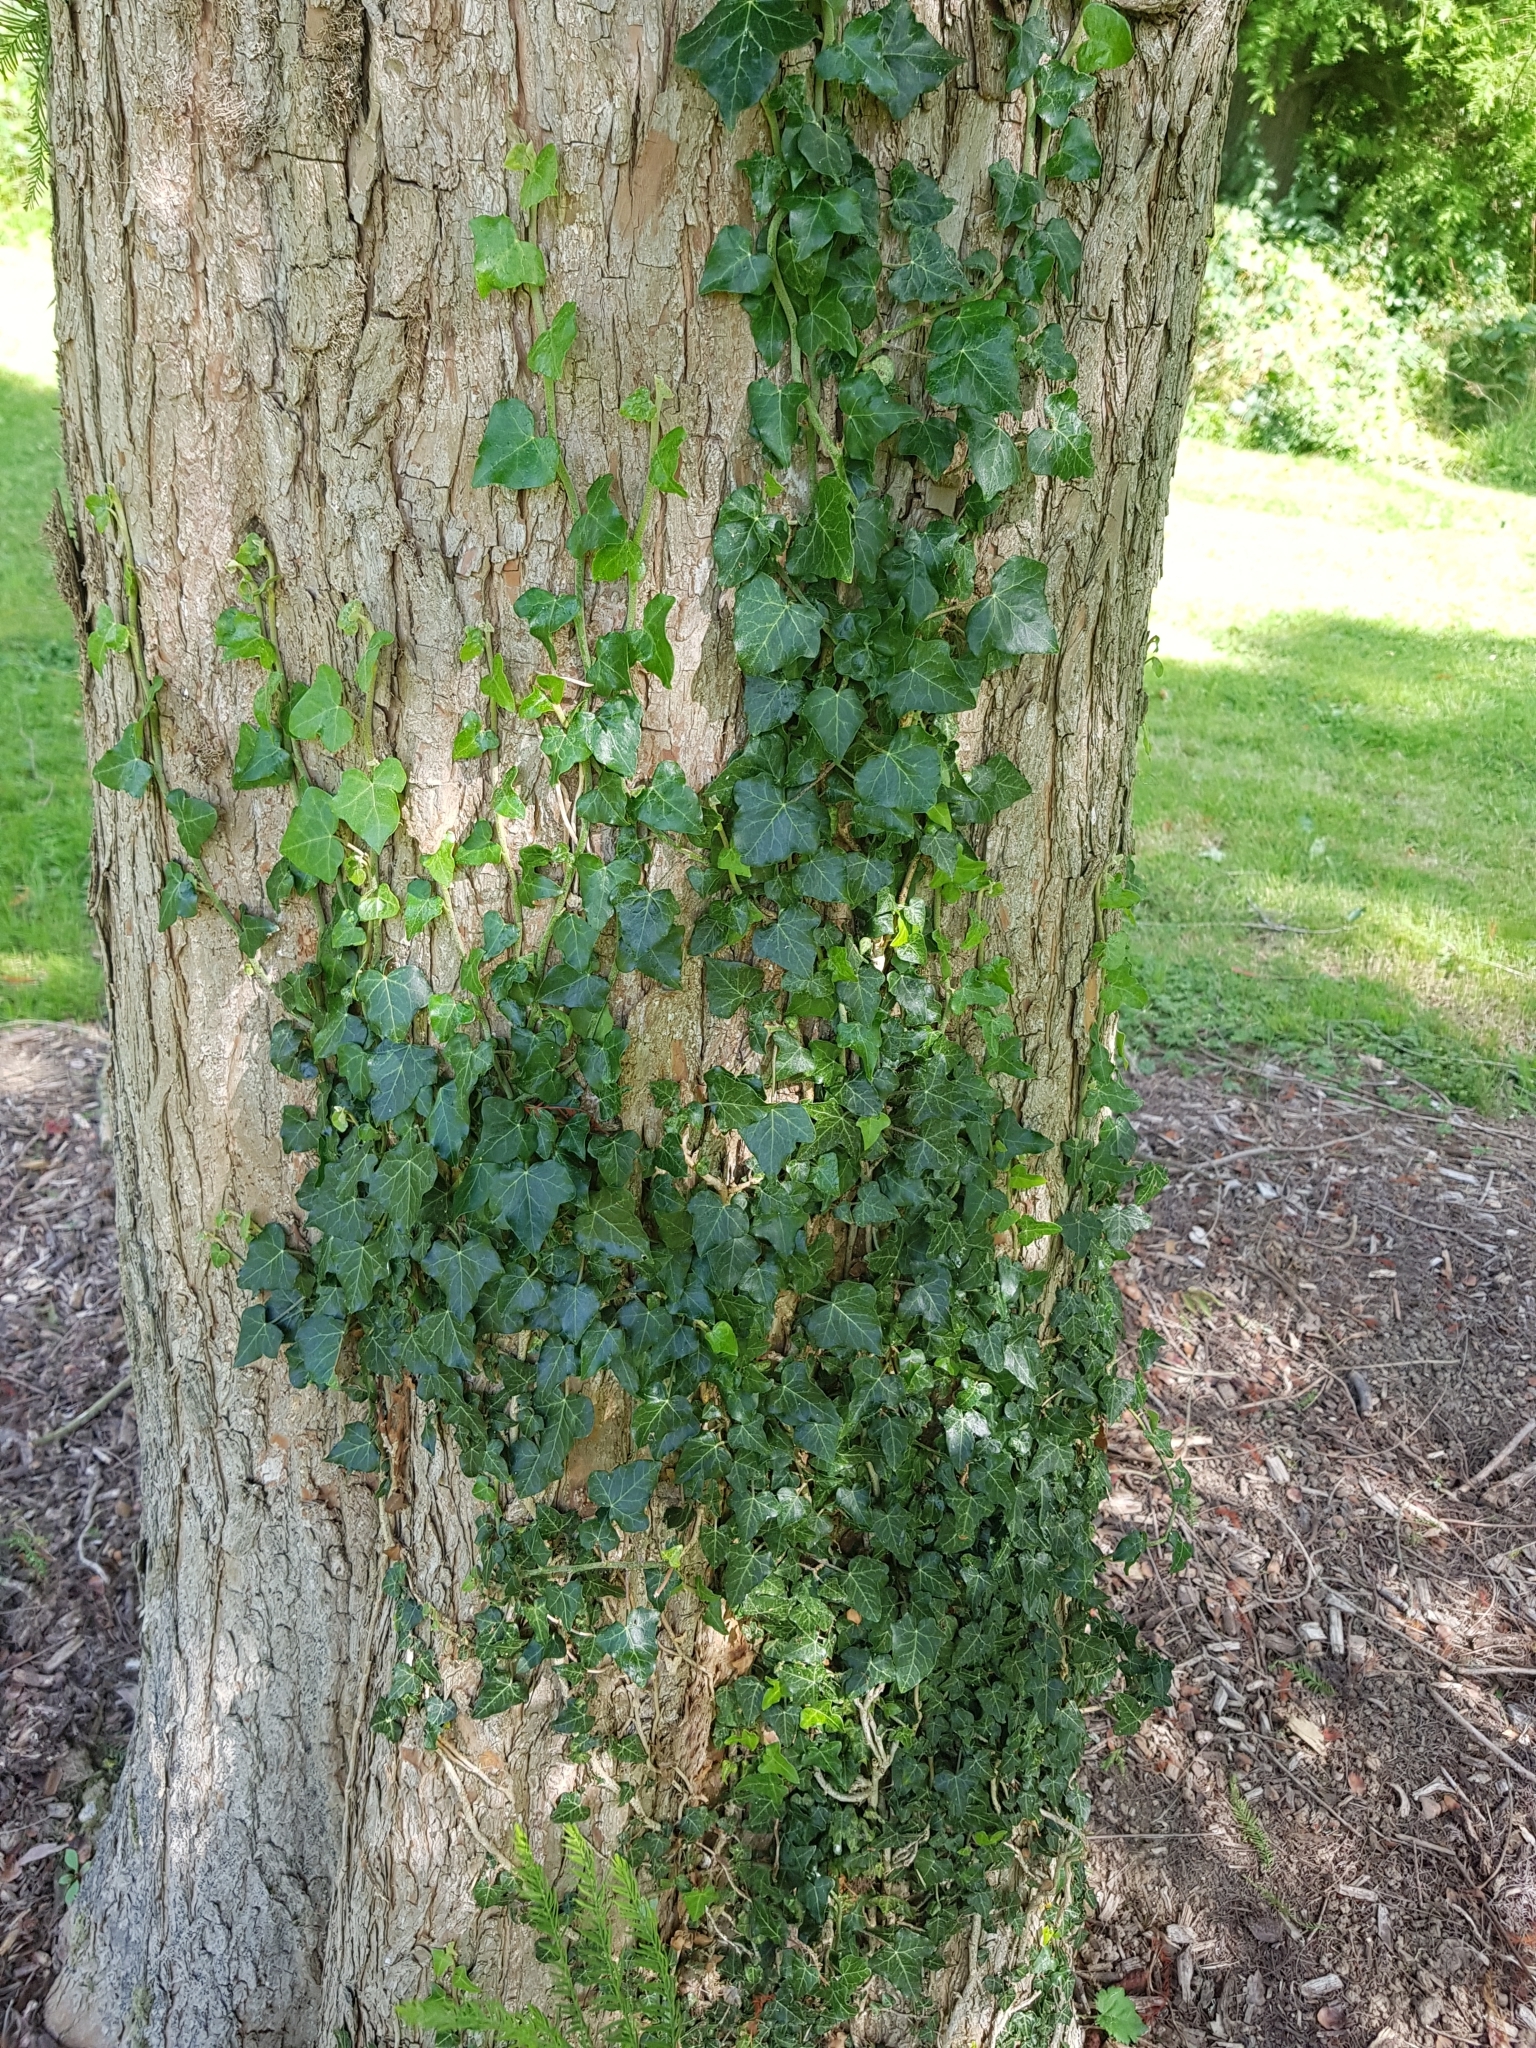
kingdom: Plantae
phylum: Tracheophyta
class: Magnoliopsida
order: Apiales
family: Araliaceae
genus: Hedera
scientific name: Hedera helix
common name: Ivy
